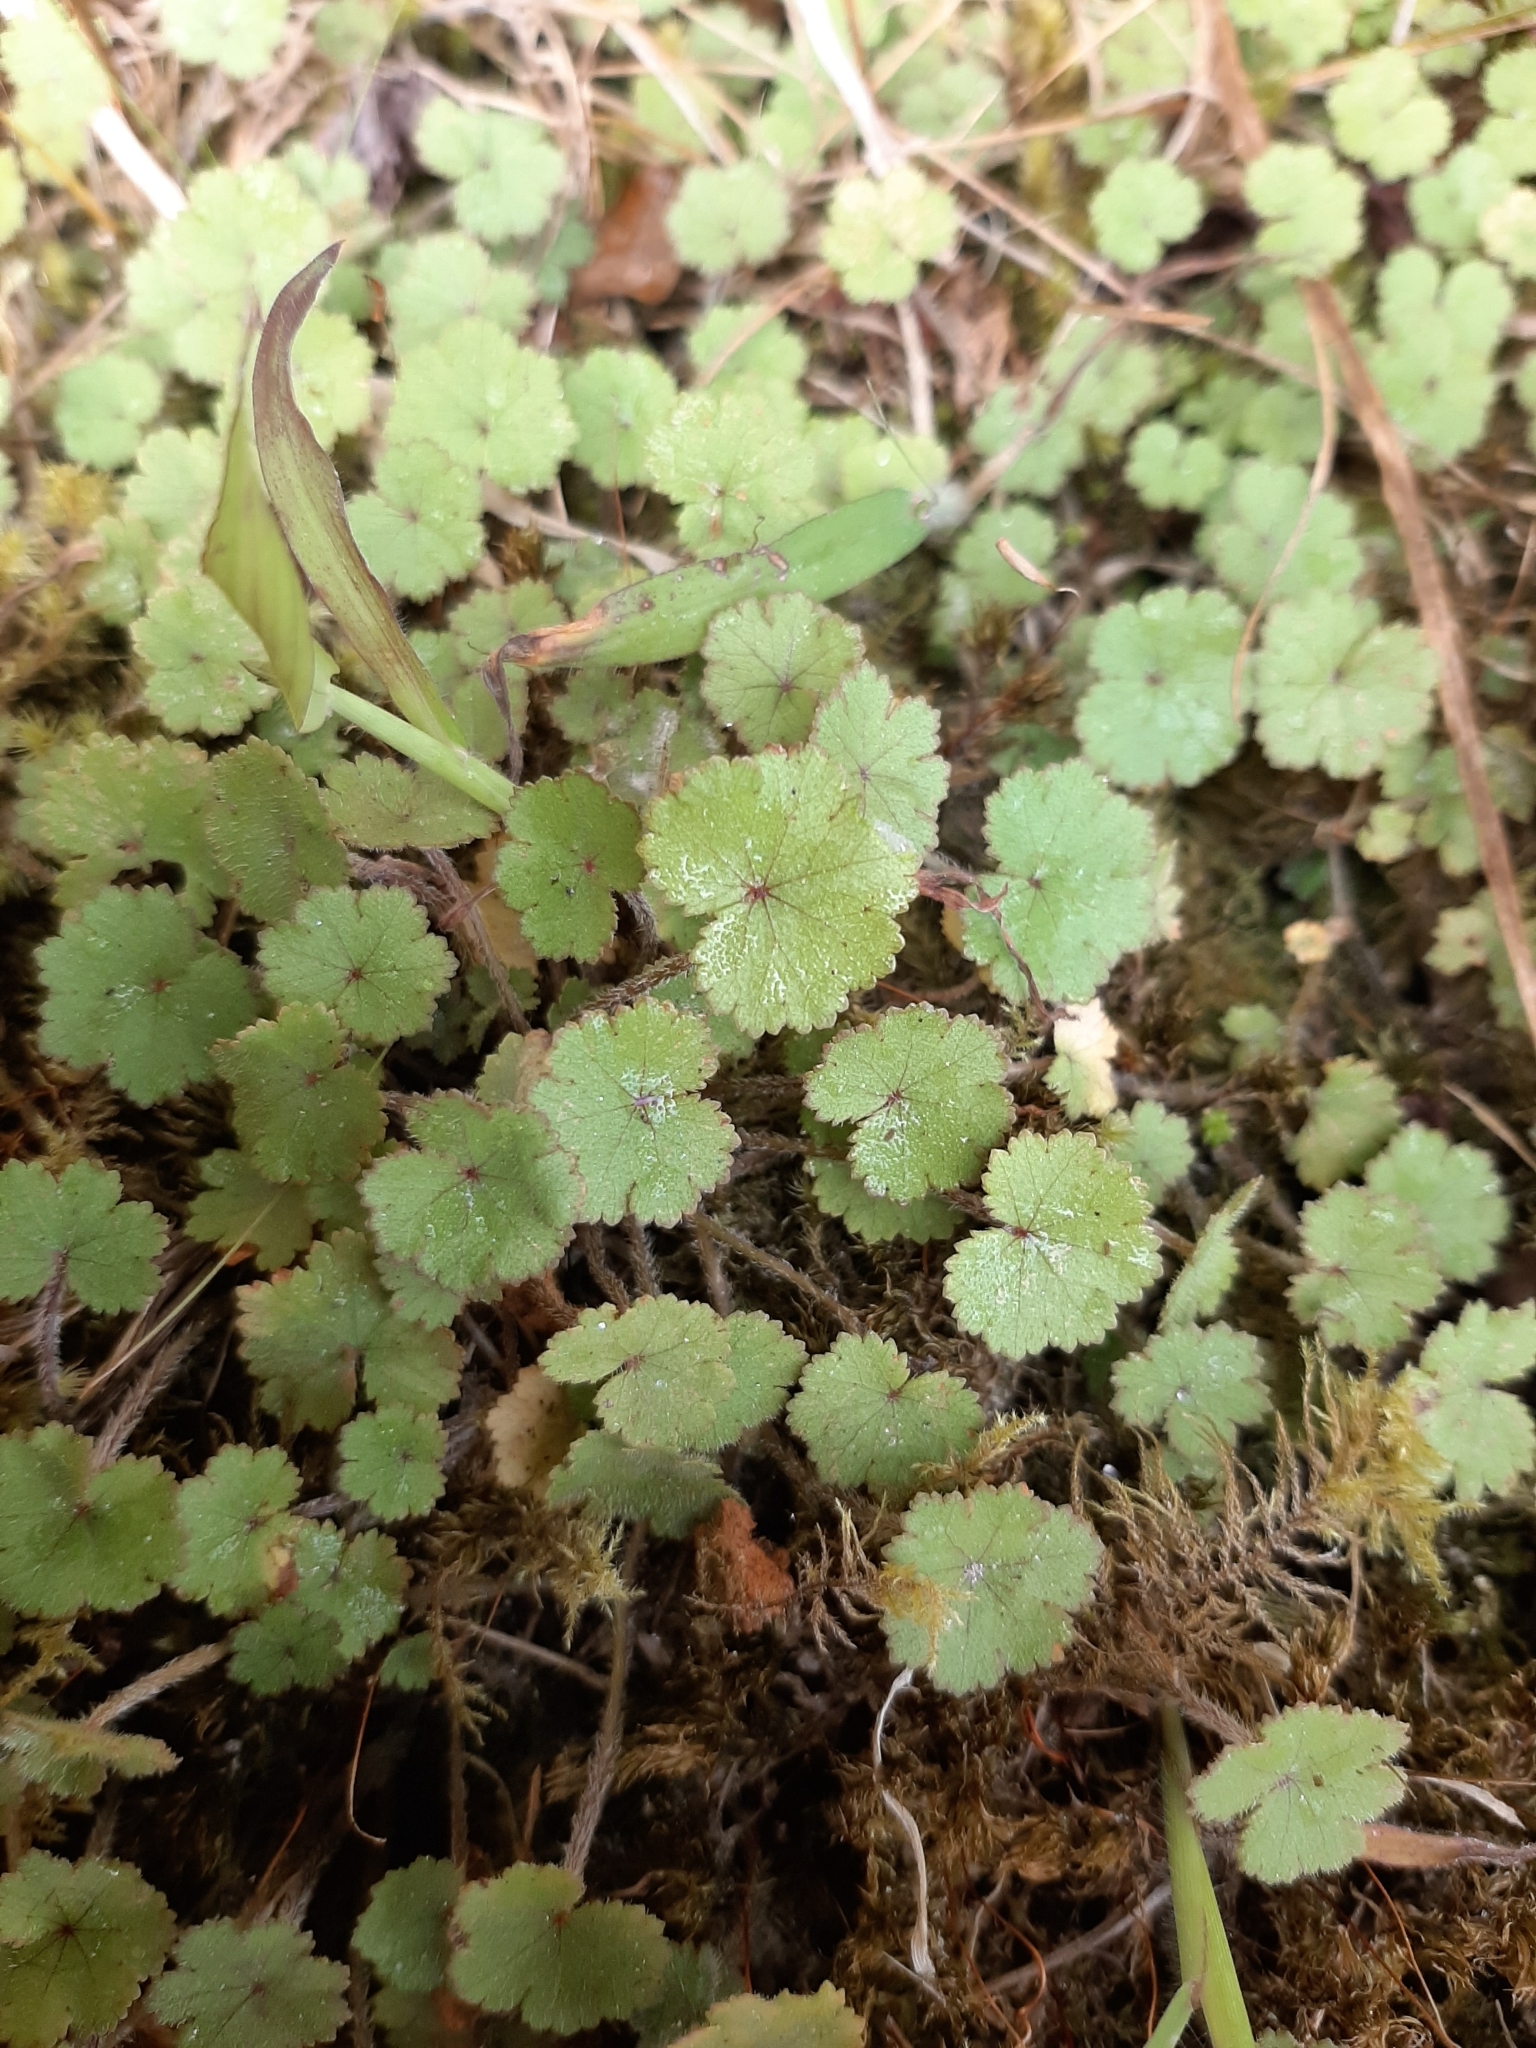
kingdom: Plantae
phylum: Tracheophyta
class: Magnoliopsida
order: Apiales
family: Araliaceae
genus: Hydrocotyle
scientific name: Hydrocotyle moschata
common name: Hairy pennywort
